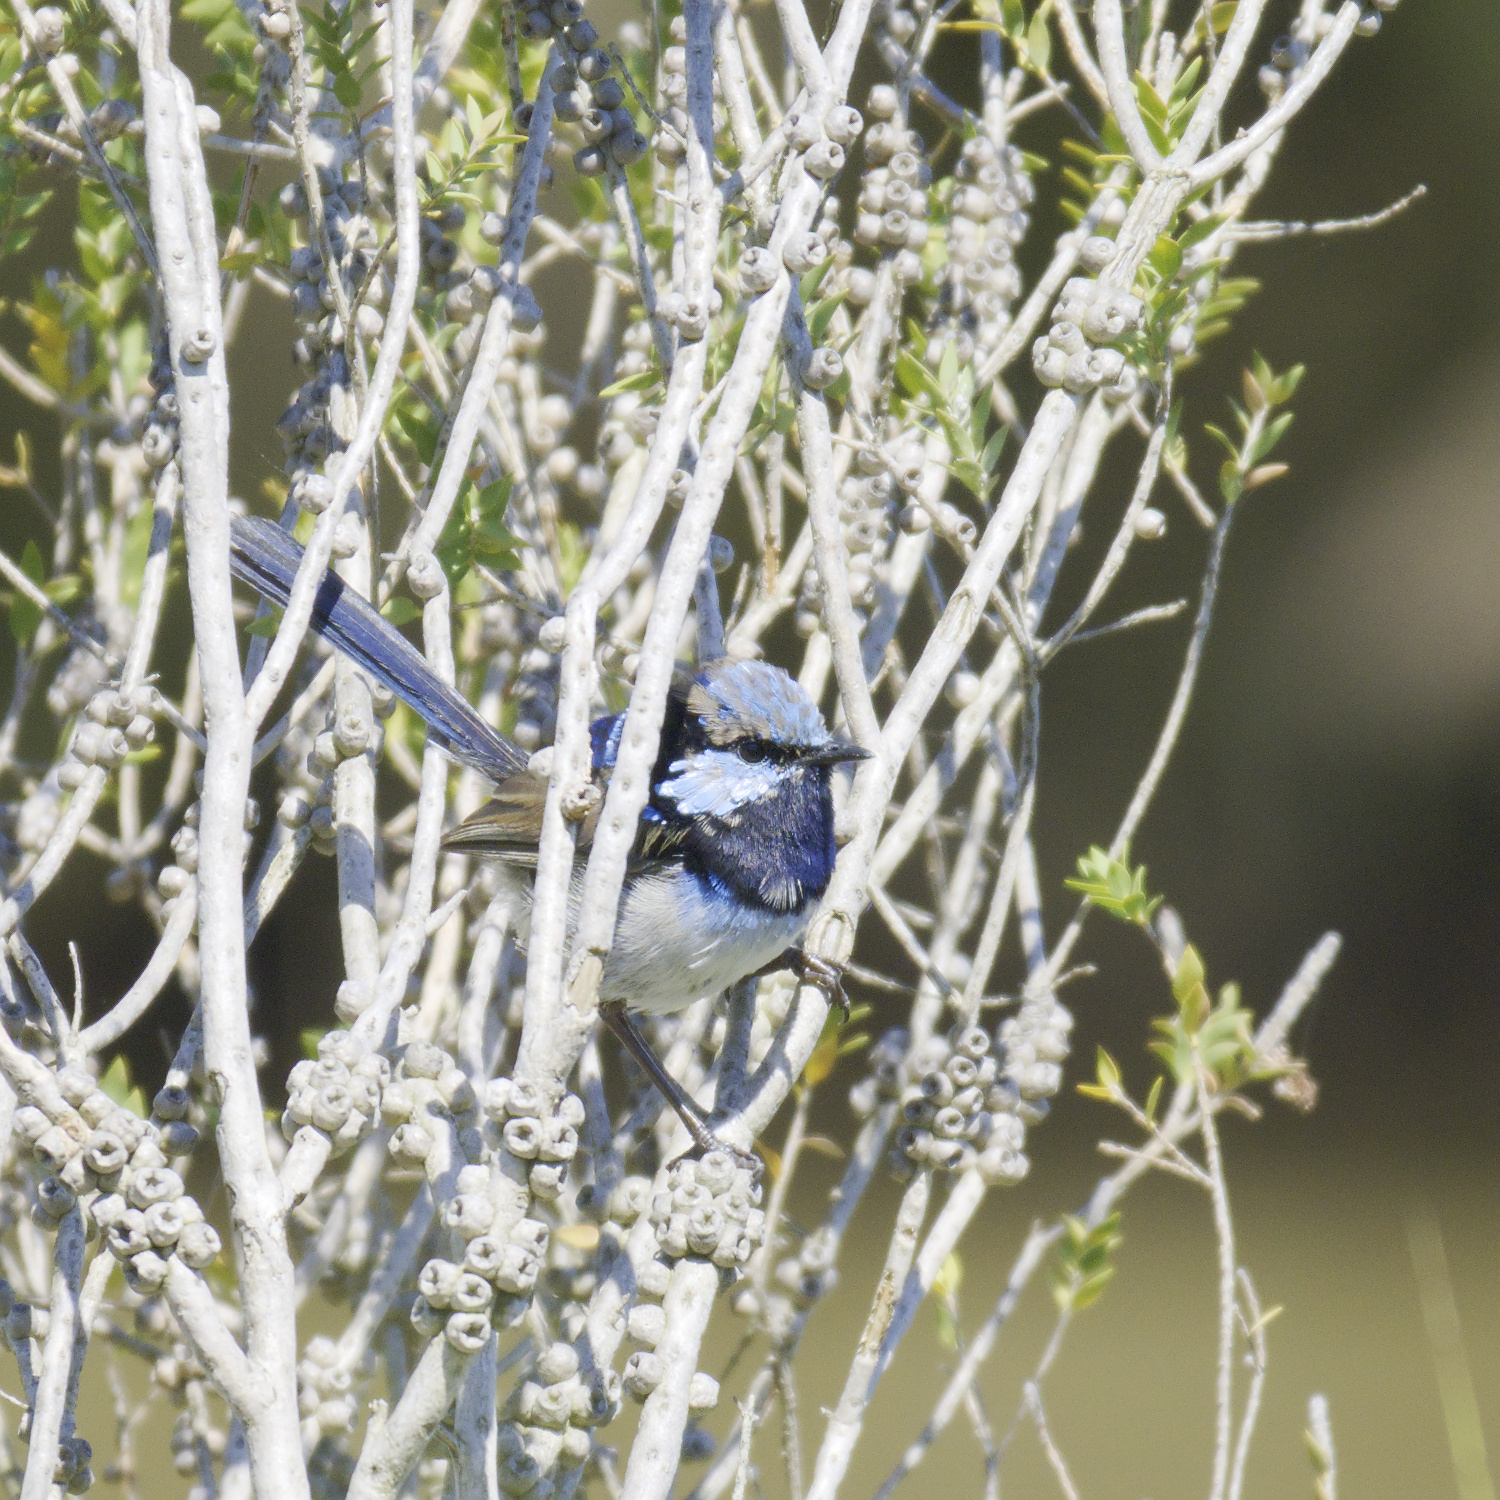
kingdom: Animalia
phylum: Chordata
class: Aves
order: Passeriformes
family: Maluridae
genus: Malurus
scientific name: Malurus cyaneus
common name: Superb fairywren
